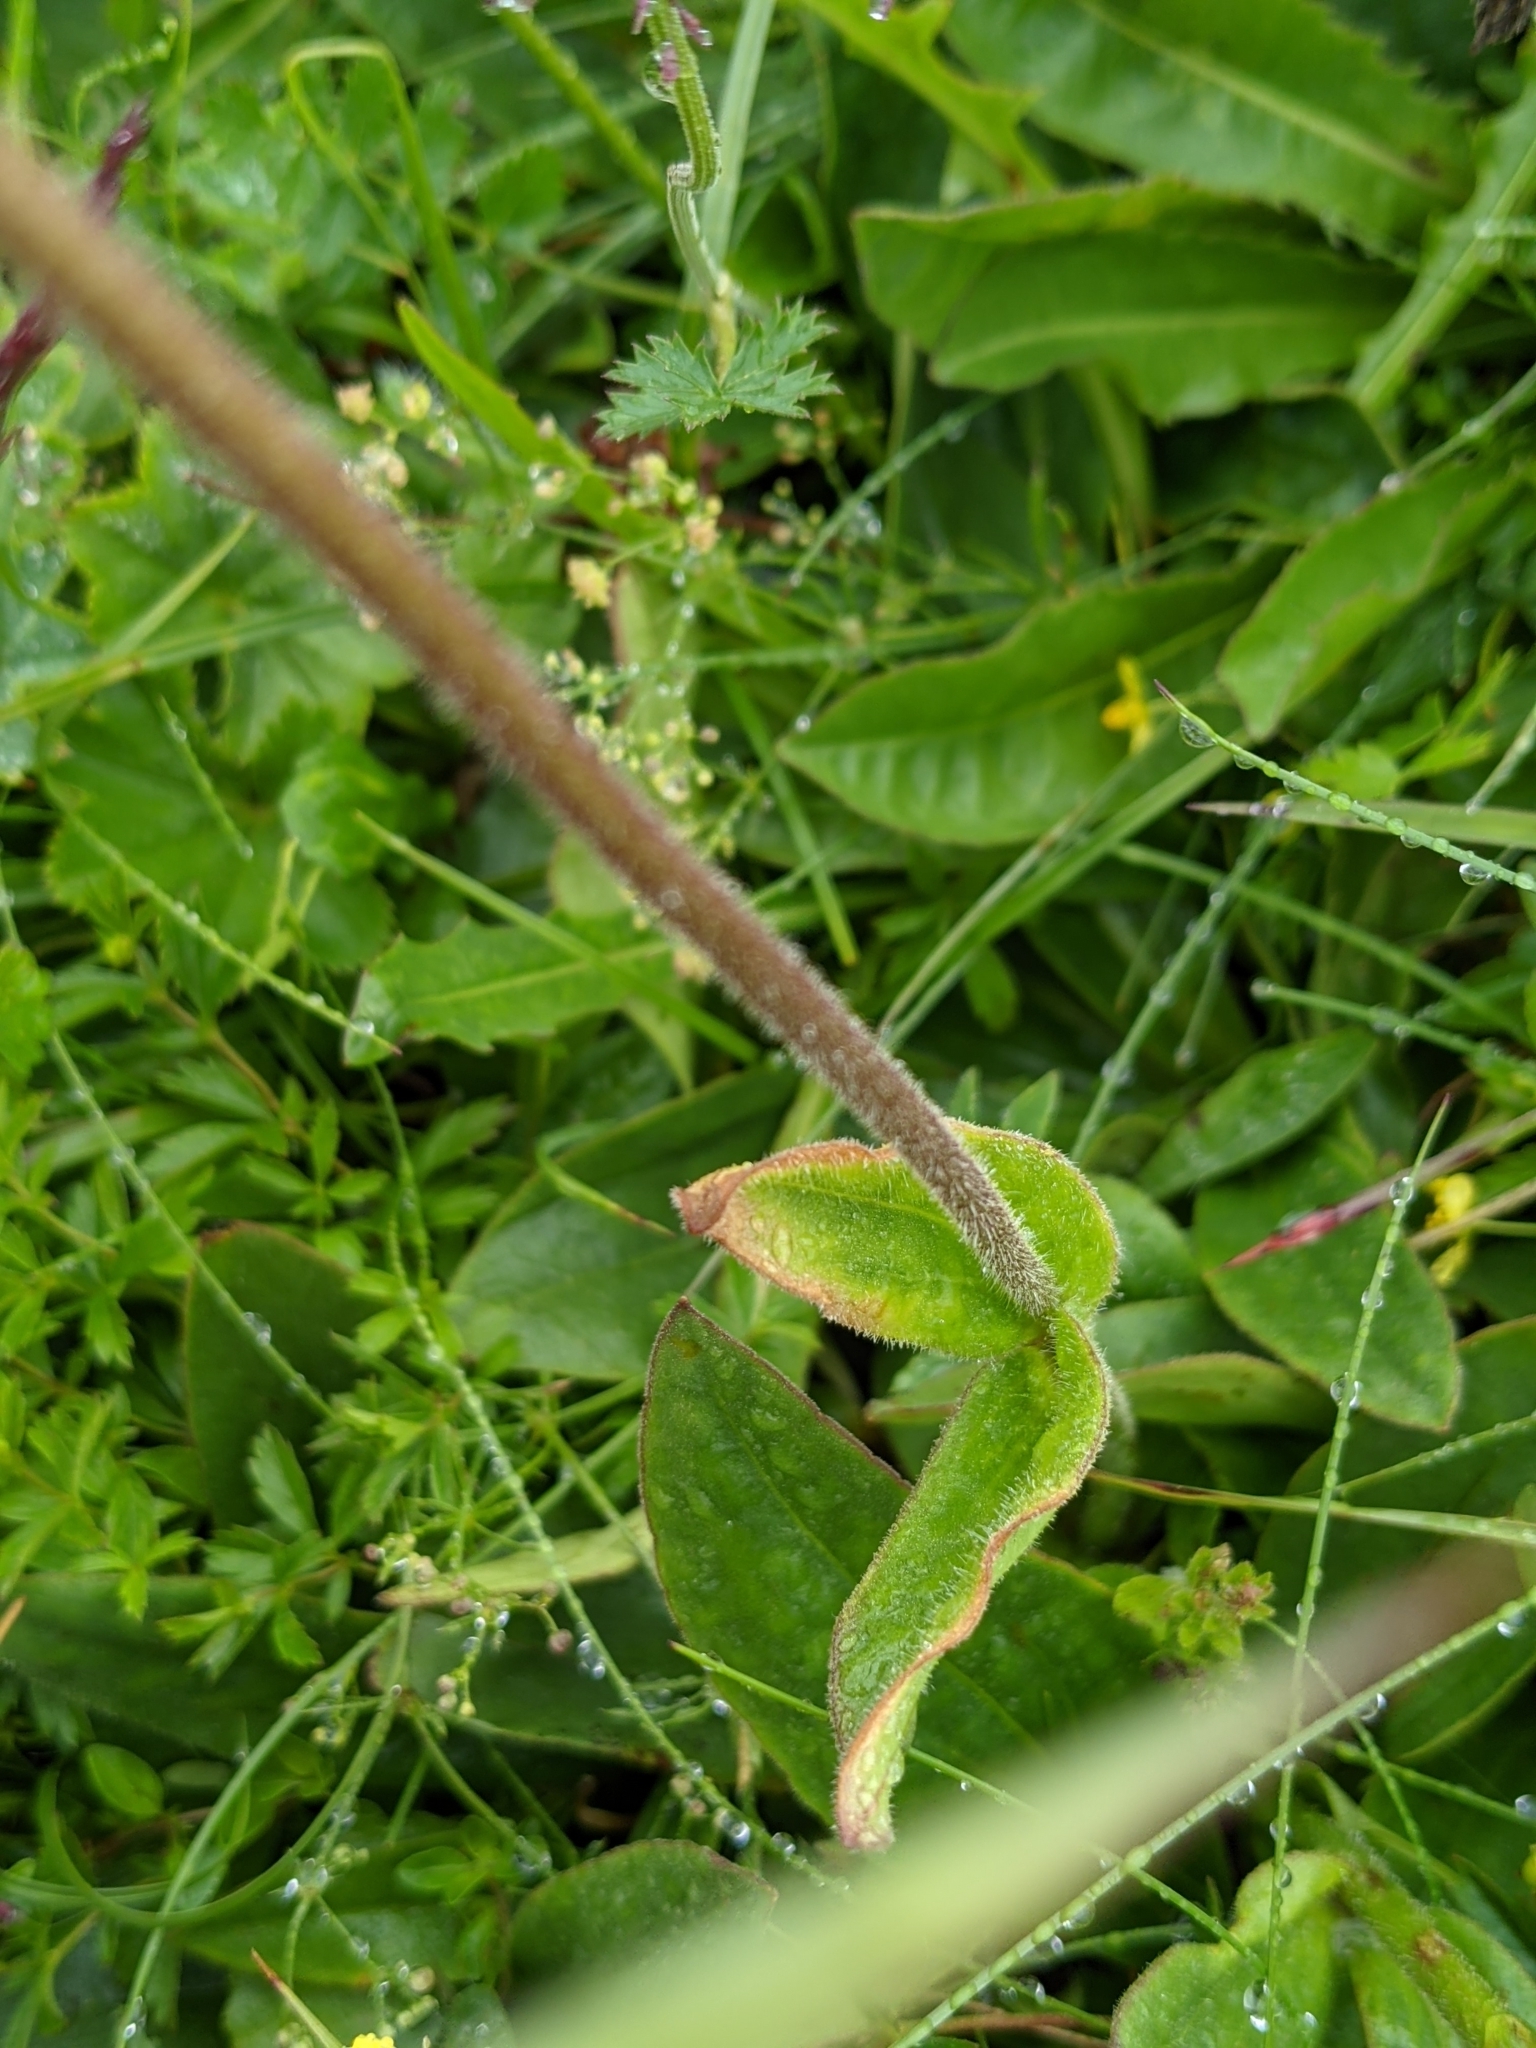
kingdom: Plantae
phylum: Tracheophyta
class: Magnoliopsida
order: Asterales
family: Asteraceae
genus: Arnica
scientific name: Arnica montana
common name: Leopard's bane
